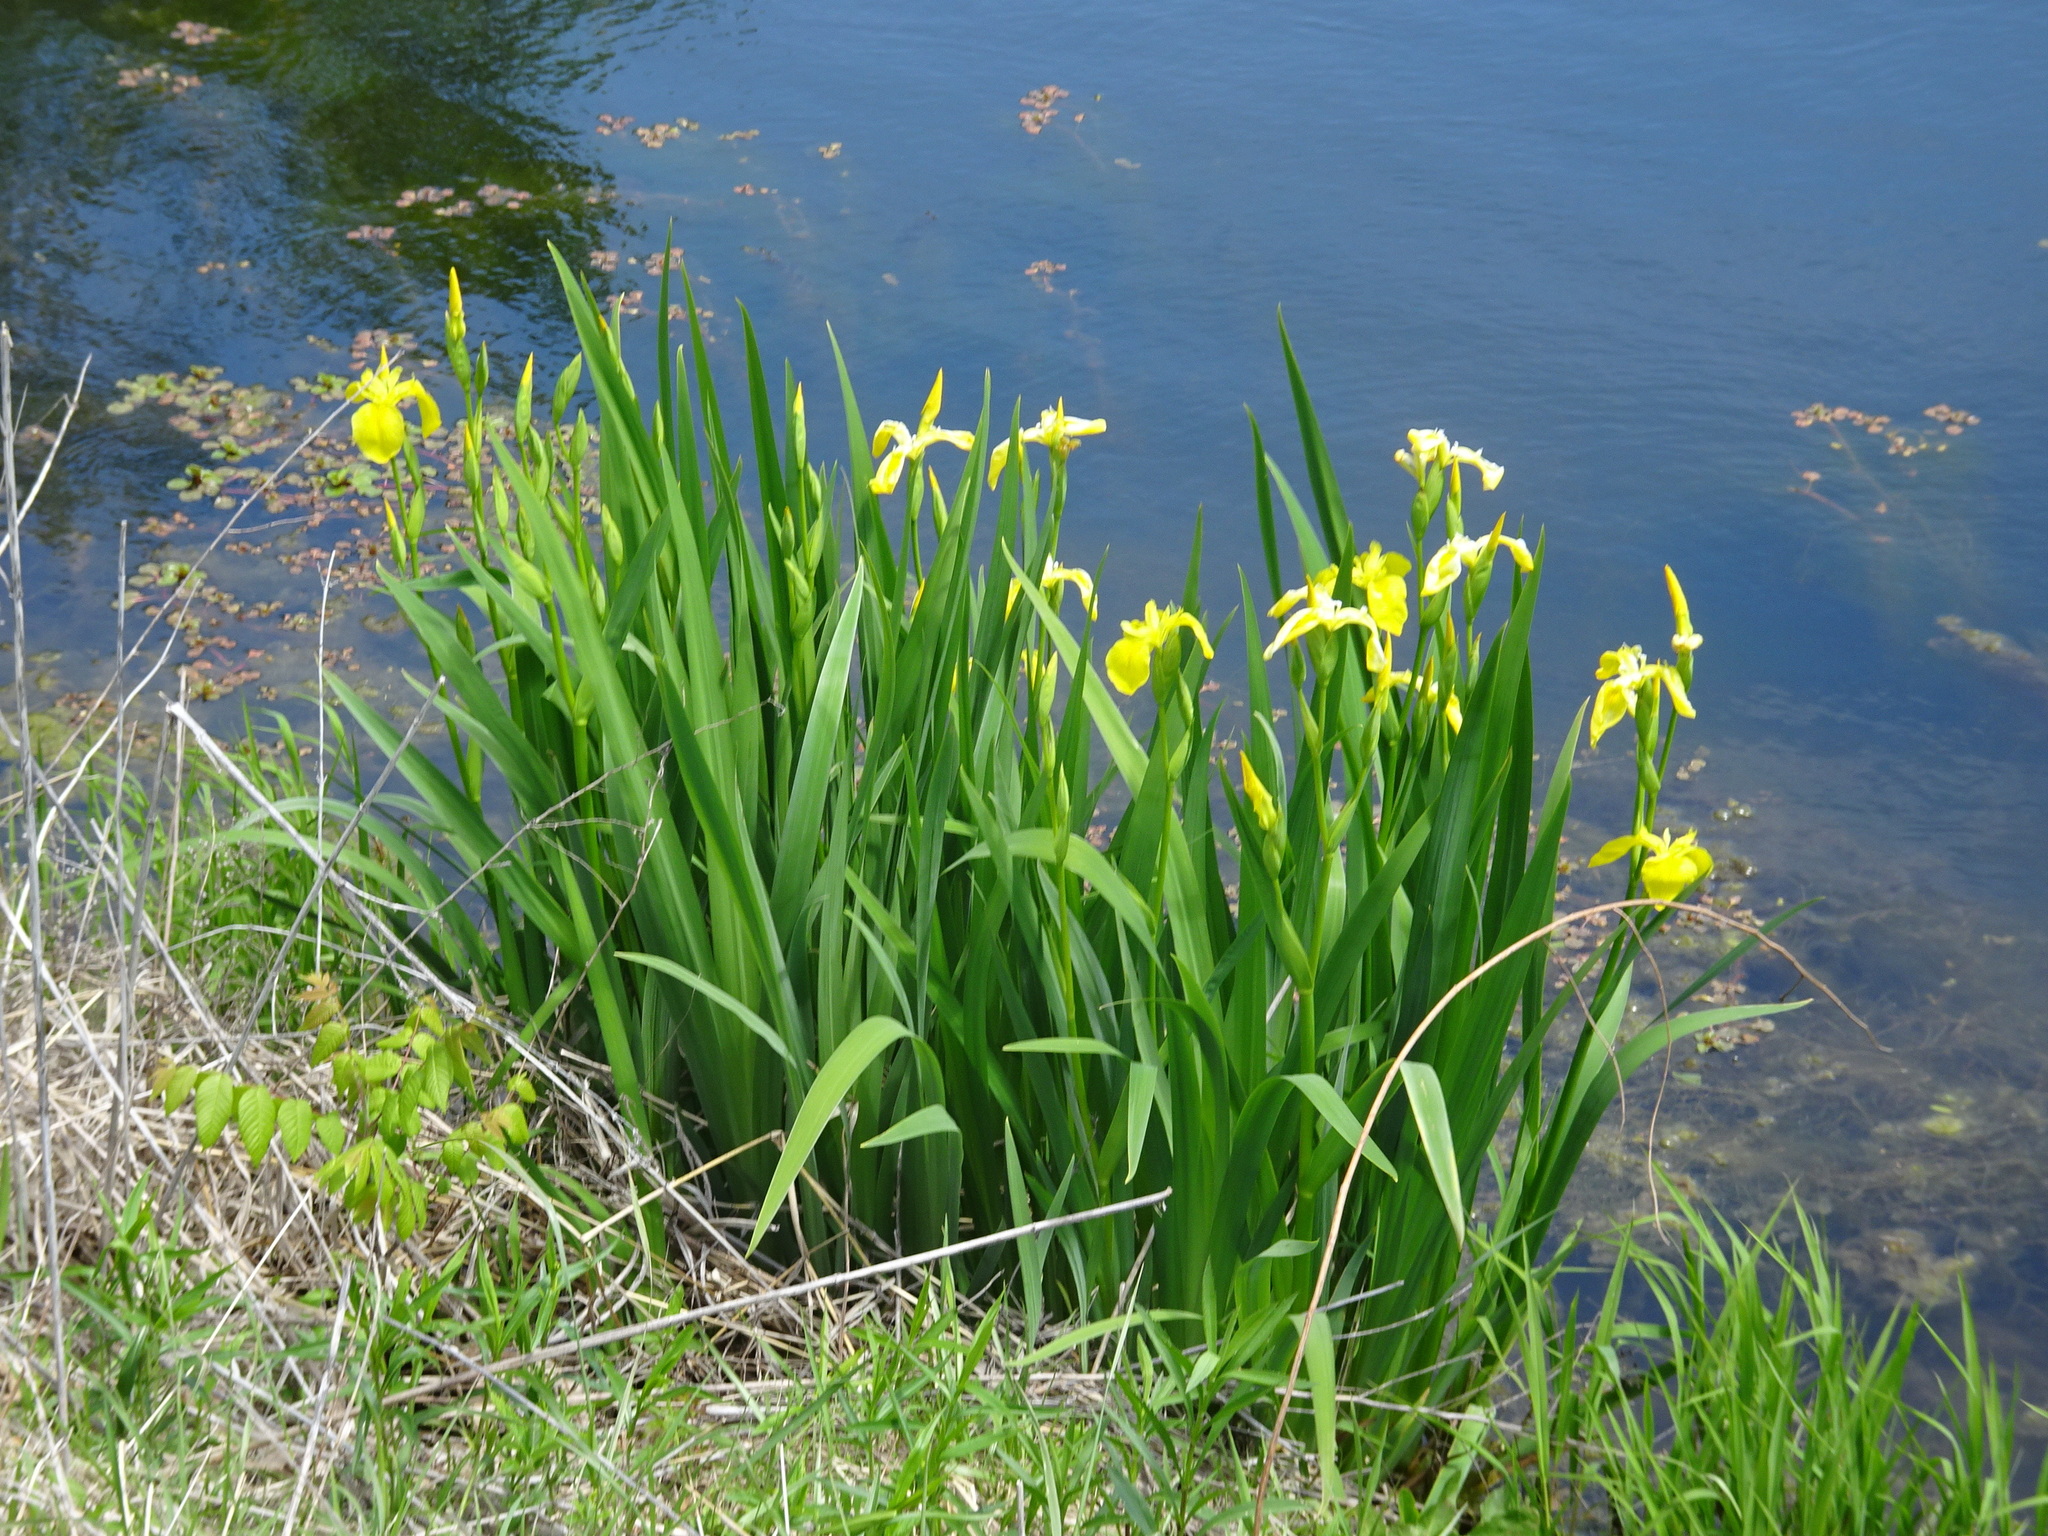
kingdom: Plantae
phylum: Tracheophyta
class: Liliopsida
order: Asparagales
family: Iridaceae
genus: Iris
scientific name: Iris pseudacorus
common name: Yellow flag
